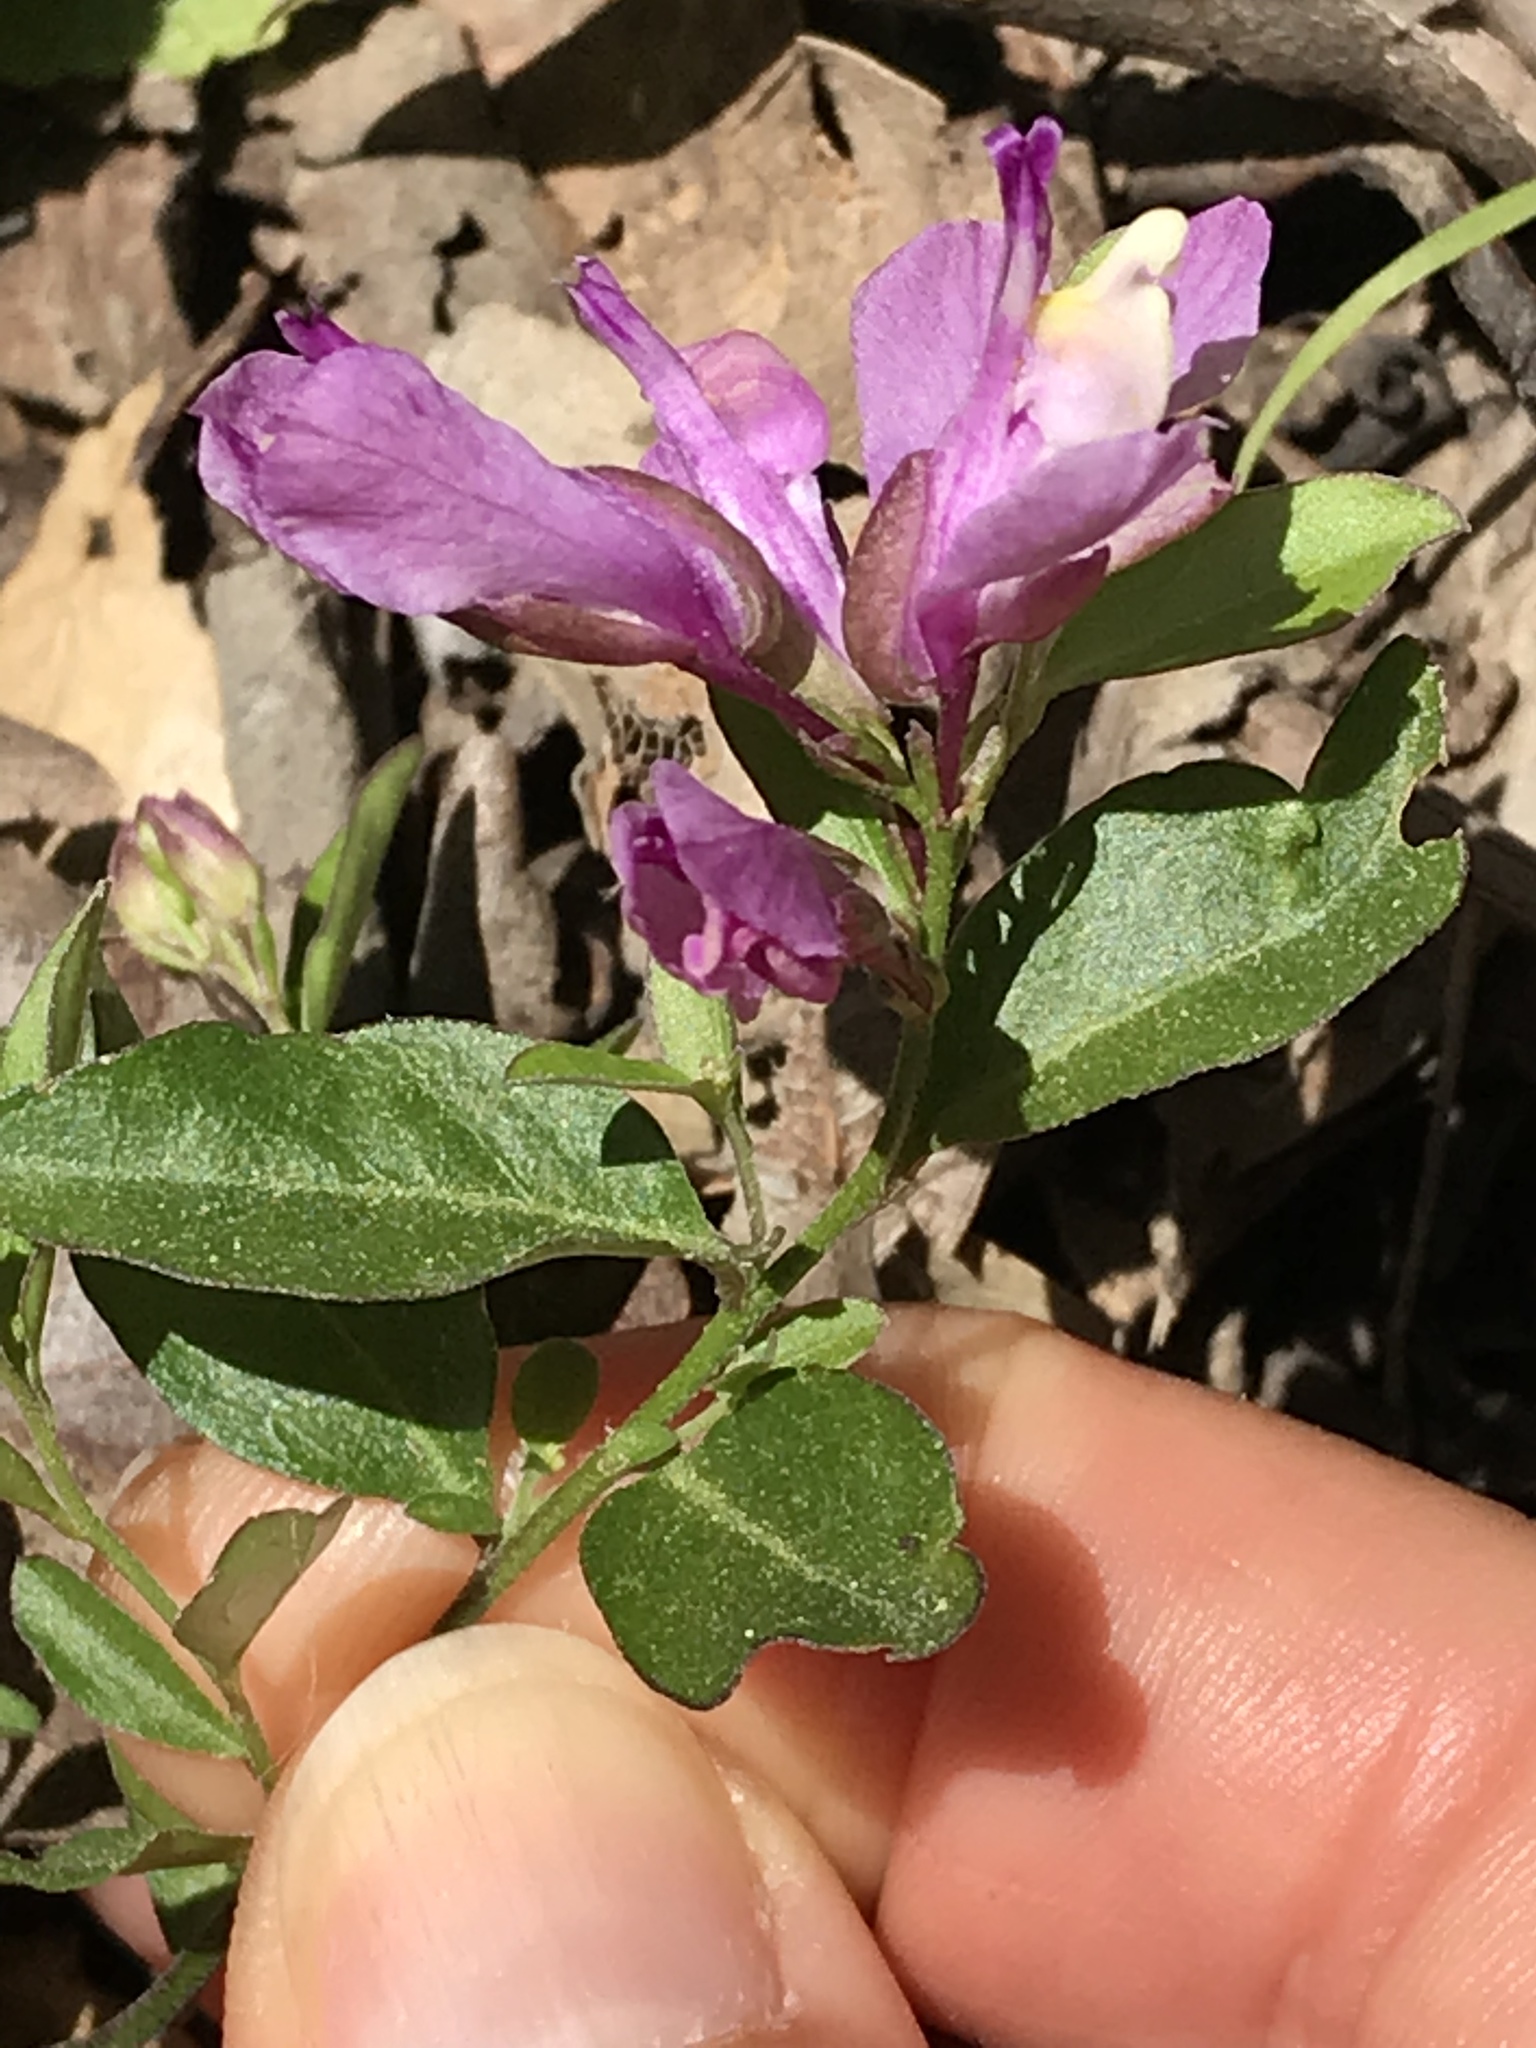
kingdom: Plantae
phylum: Tracheophyta
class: Magnoliopsida
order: Fabales
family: Polygalaceae
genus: Rhinotropis
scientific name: Rhinotropis californica
